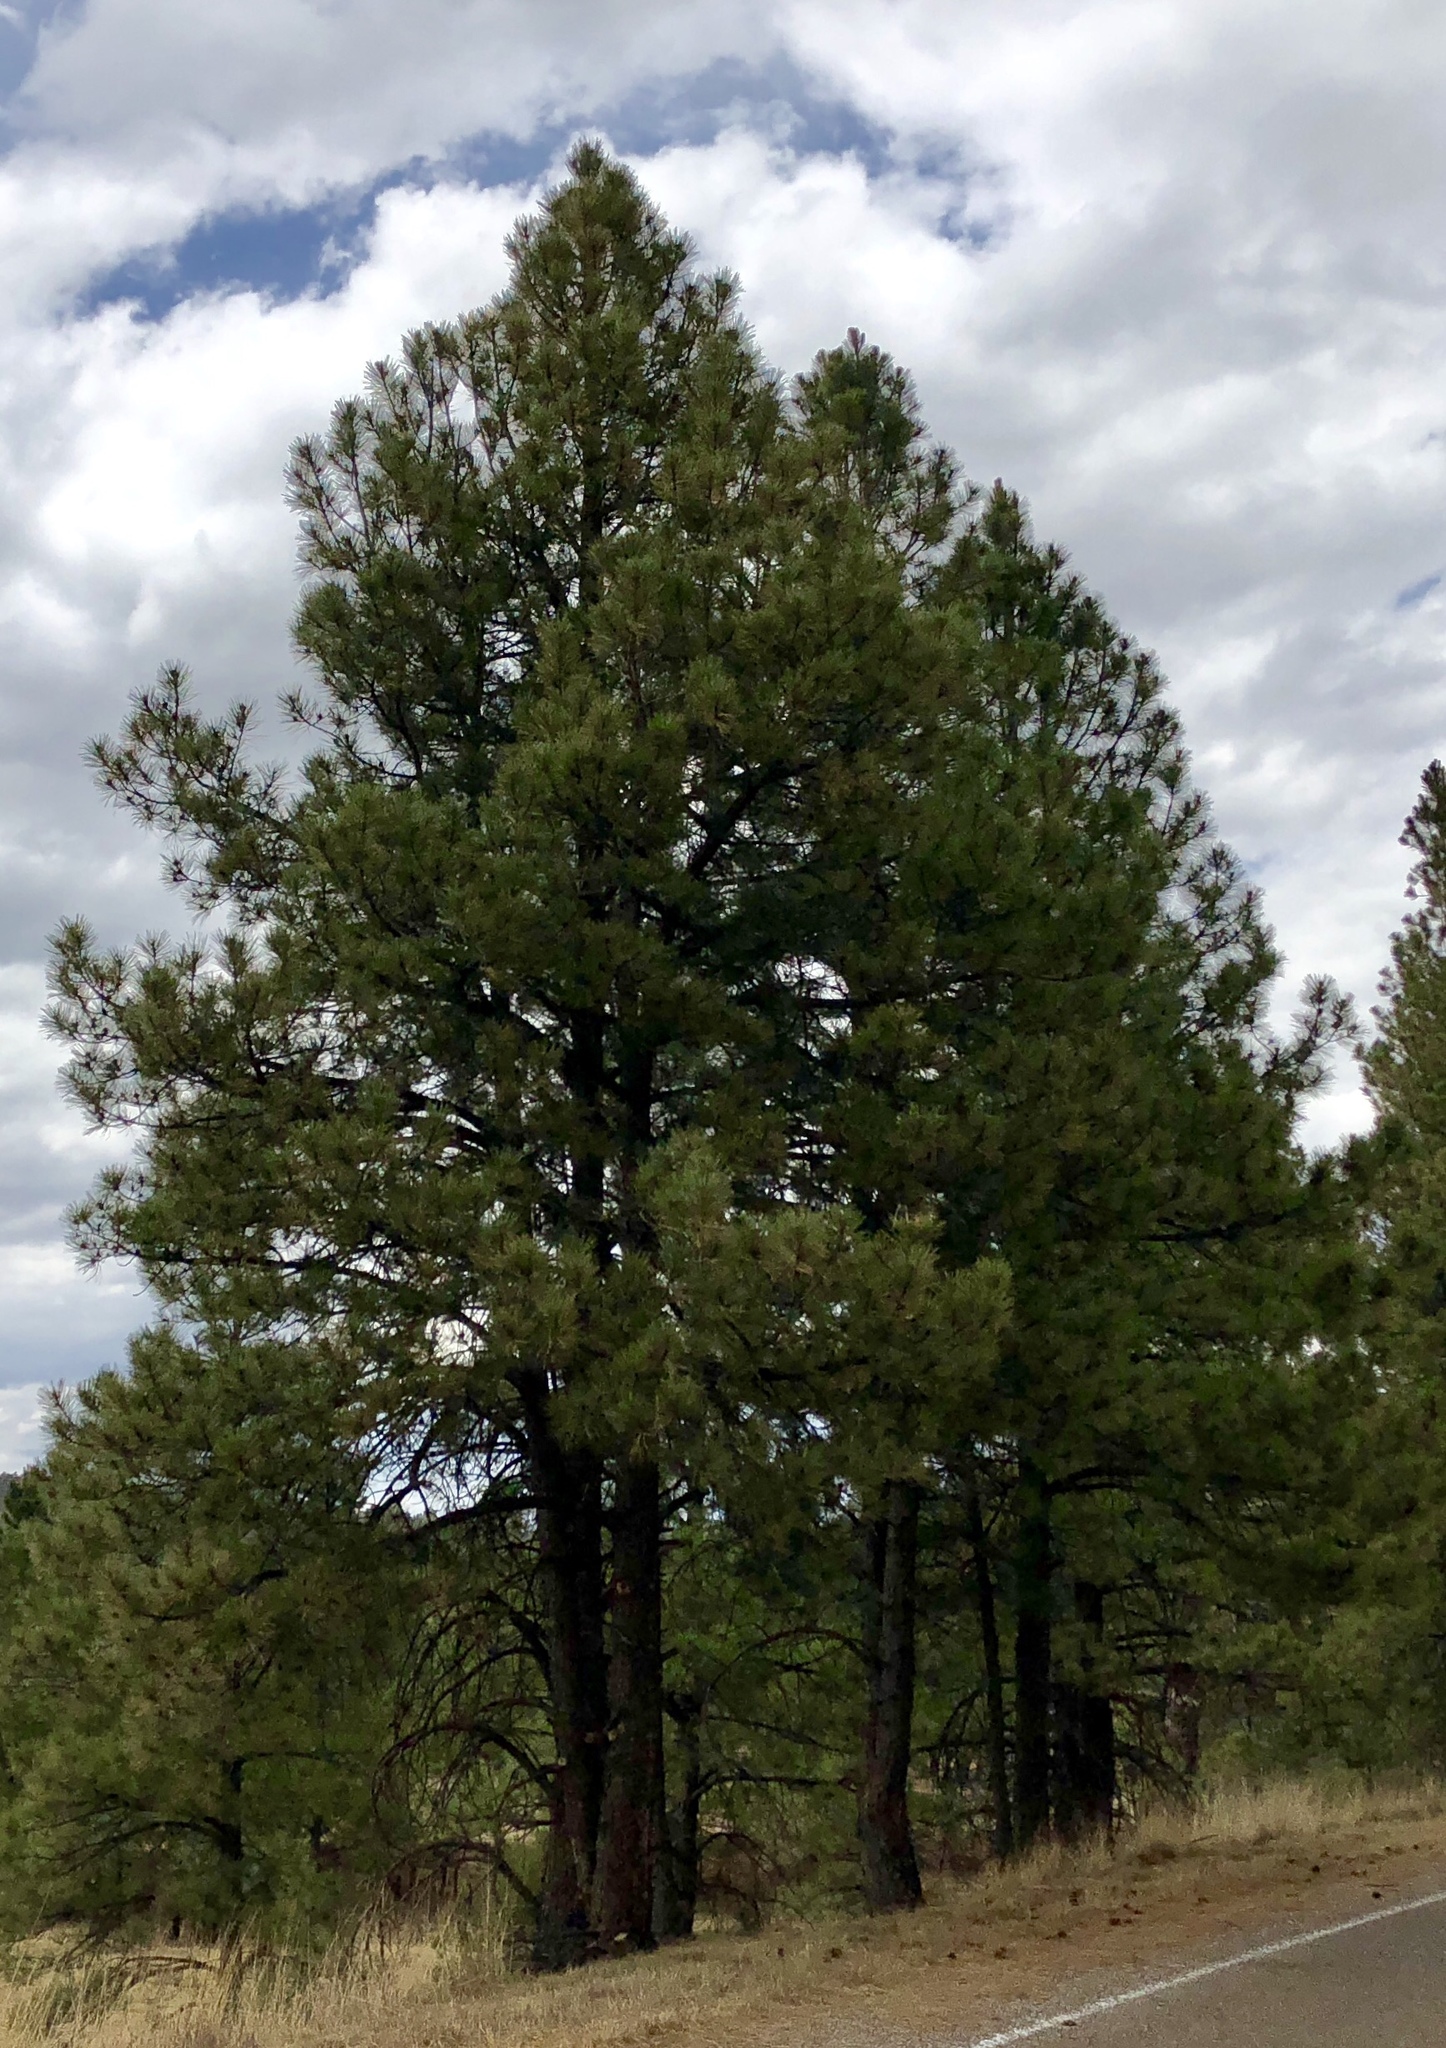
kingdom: Plantae
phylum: Tracheophyta
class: Pinopsida
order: Pinales
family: Pinaceae
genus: Pinus
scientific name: Pinus ponderosa
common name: Western yellow-pine
